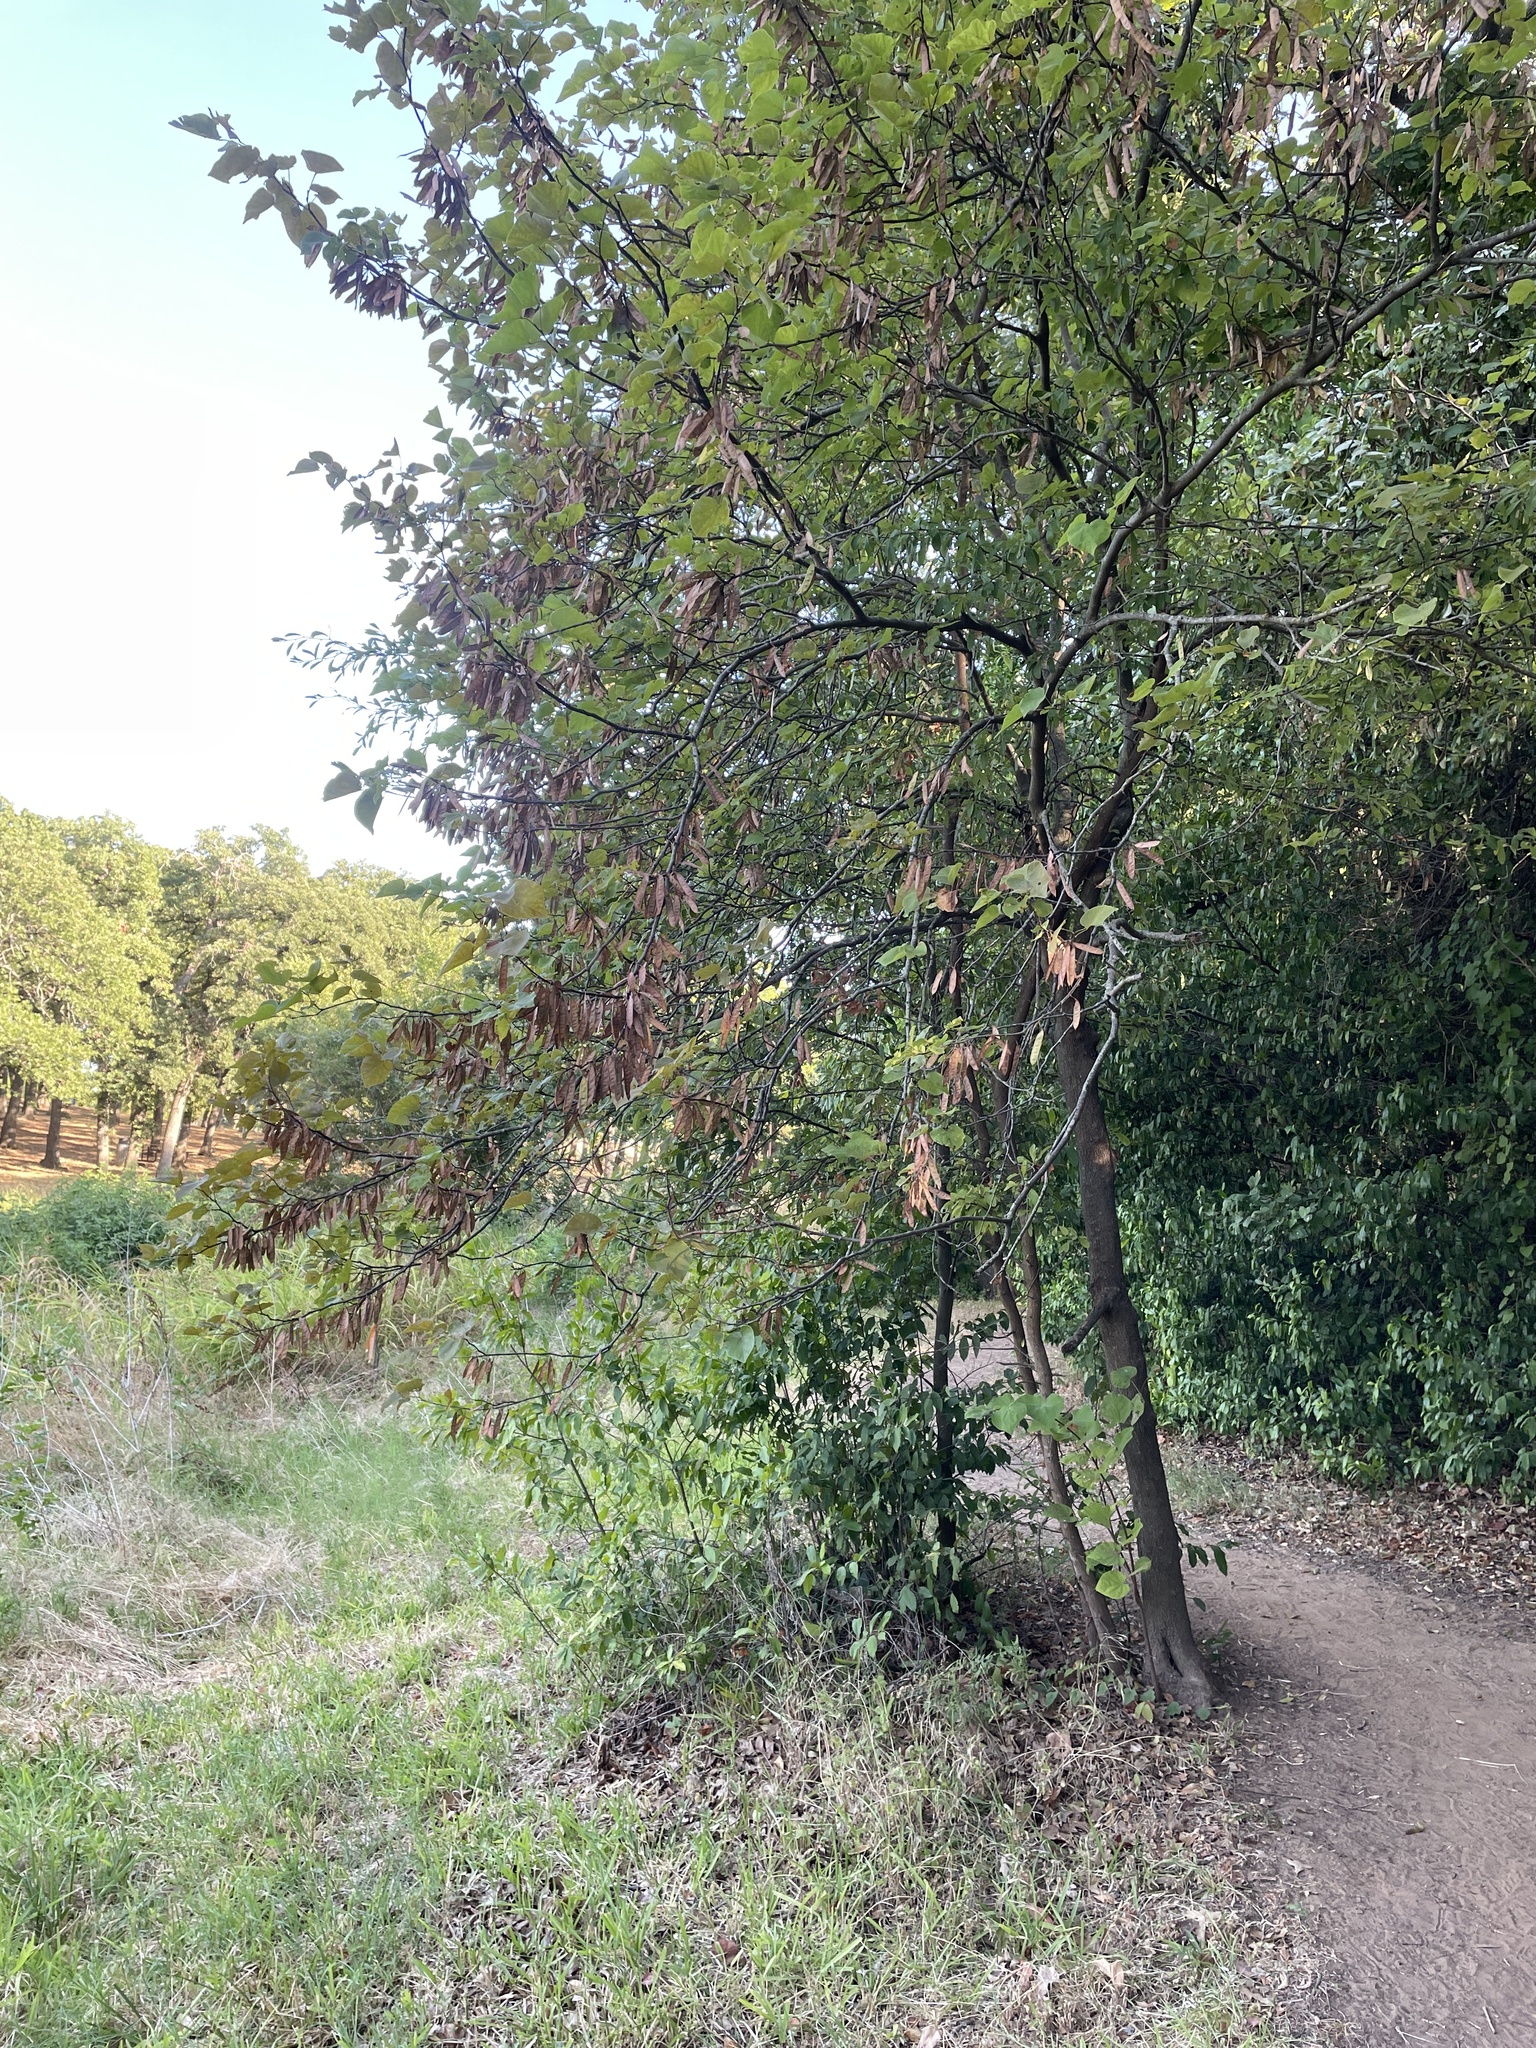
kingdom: Plantae
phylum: Tracheophyta
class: Magnoliopsida
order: Fabales
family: Fabaceae
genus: Cercis
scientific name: Cercis canadensis
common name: Eastern redbud
